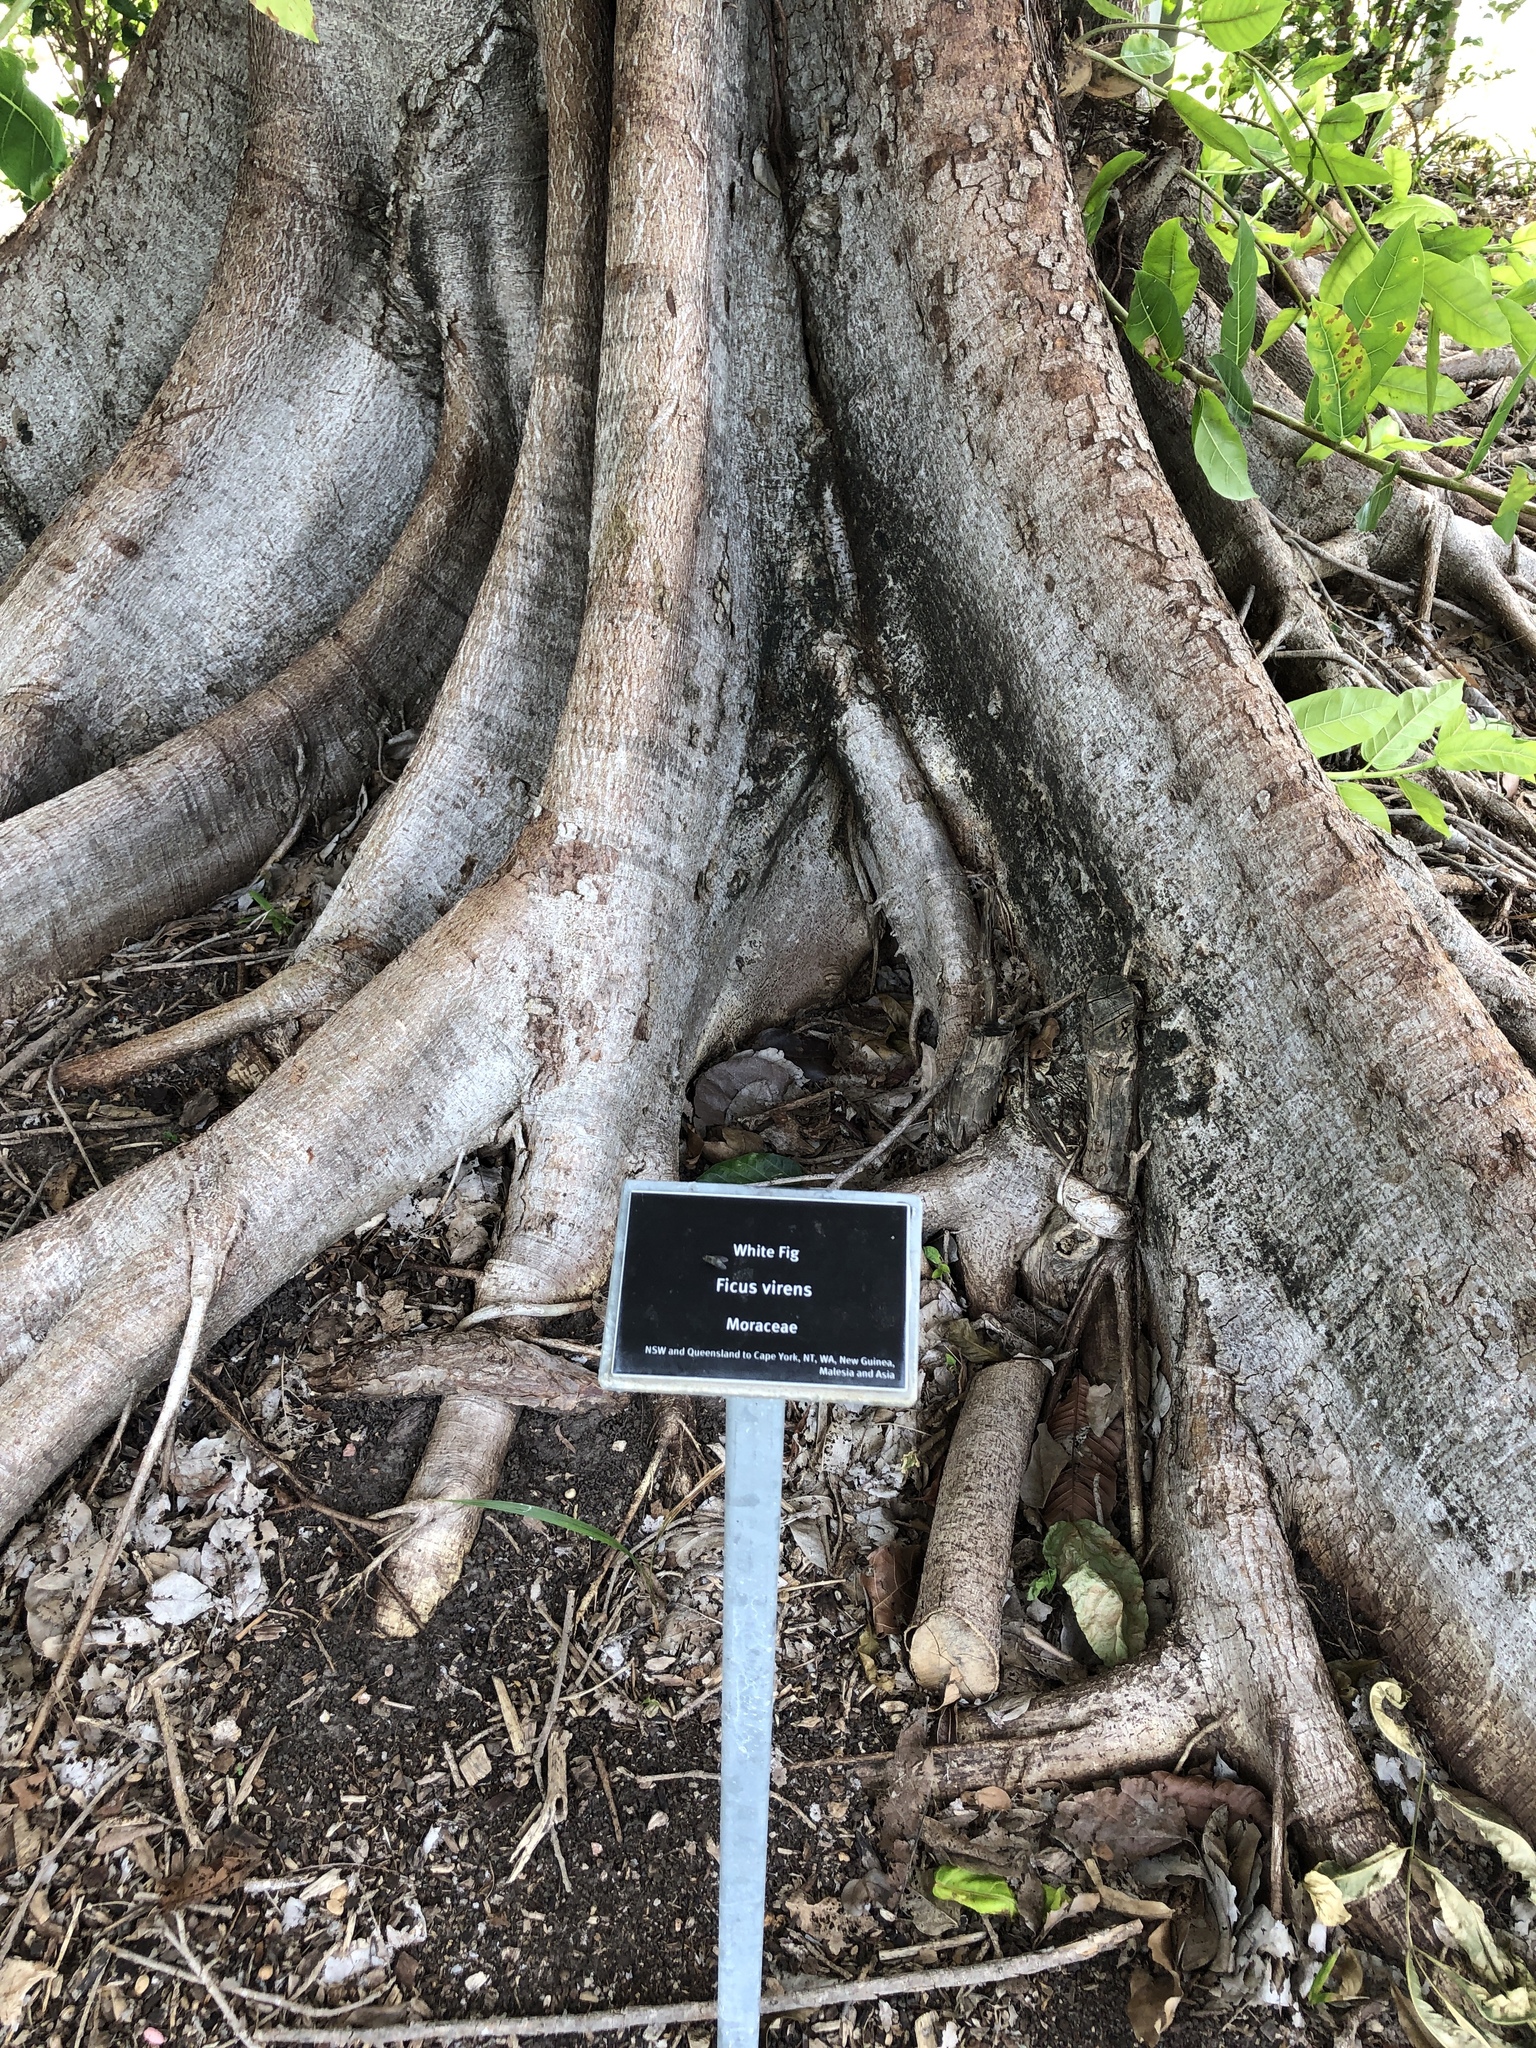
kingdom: Plantae
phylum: Tracheophyta
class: Magnoliopsida
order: Rosales
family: Moraceae
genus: Ficus
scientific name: Ficus virens
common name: Spotted fig
